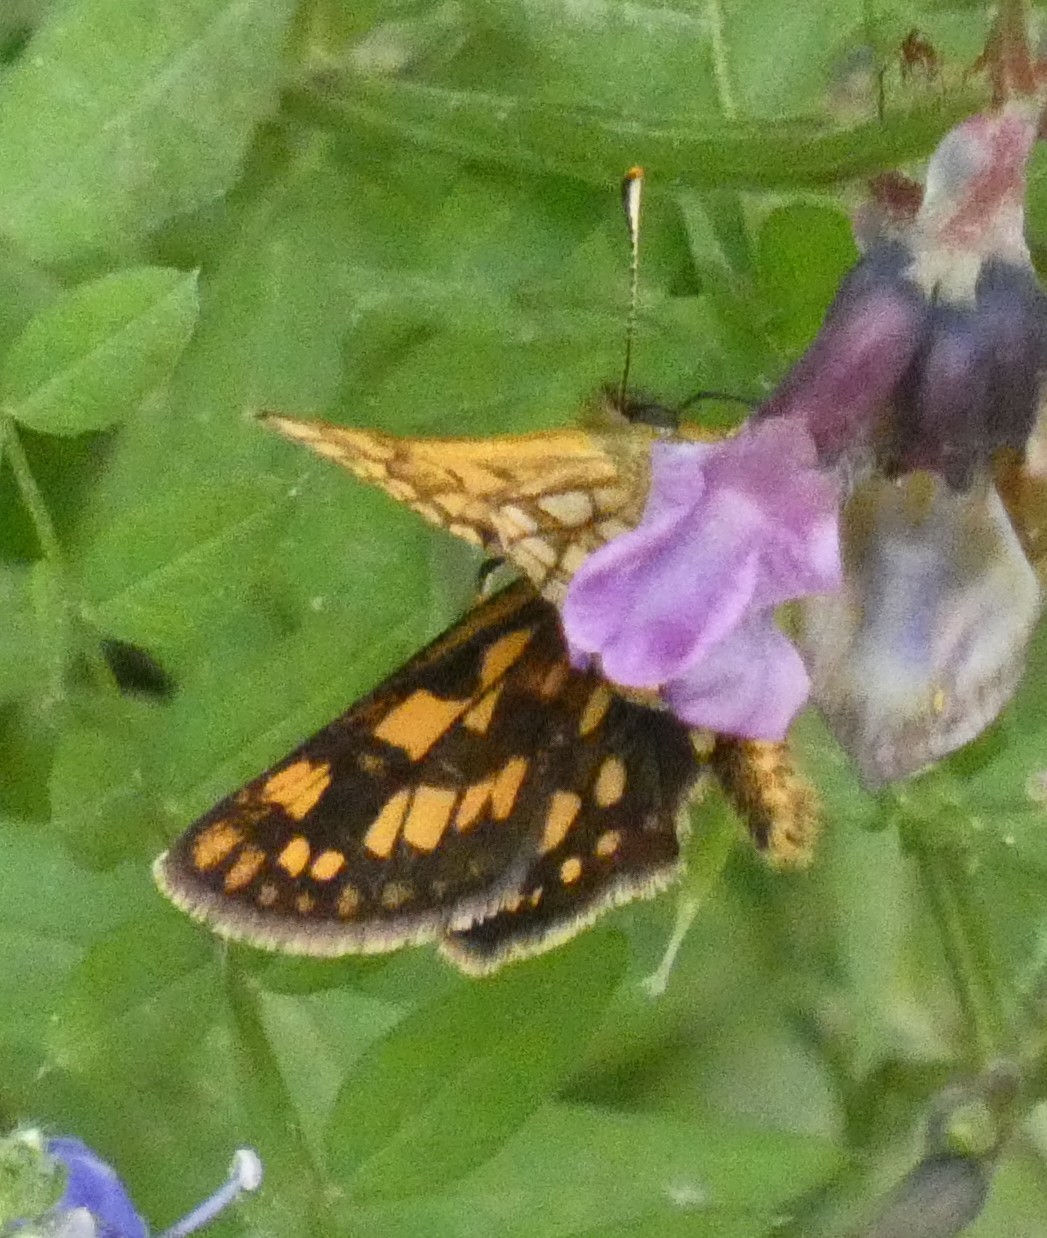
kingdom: Animalia
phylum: Arthropoda
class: Insecta
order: Lepidoptera
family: Hesperiidae
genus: Carterocephalus
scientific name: Carterocephalus palaemon
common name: Chequered skipper
